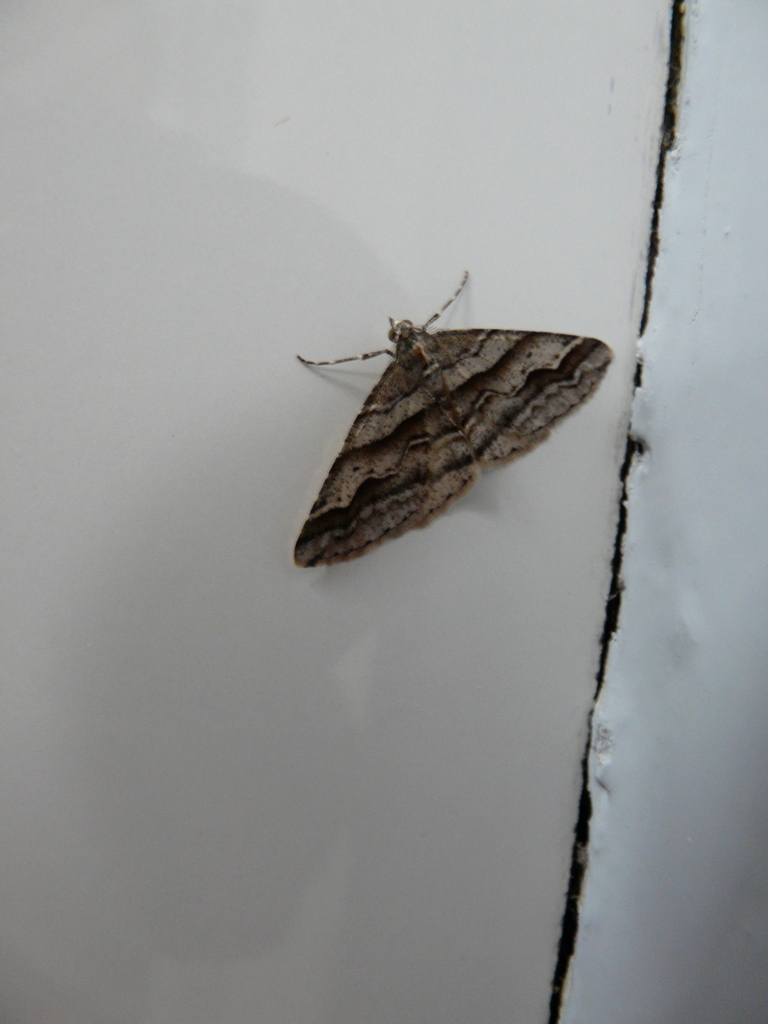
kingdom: Animalia
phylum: Arthropoda
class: Insecta
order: Lepidoptera
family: Geometridae
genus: Syneora
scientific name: Syneora cheleuta
